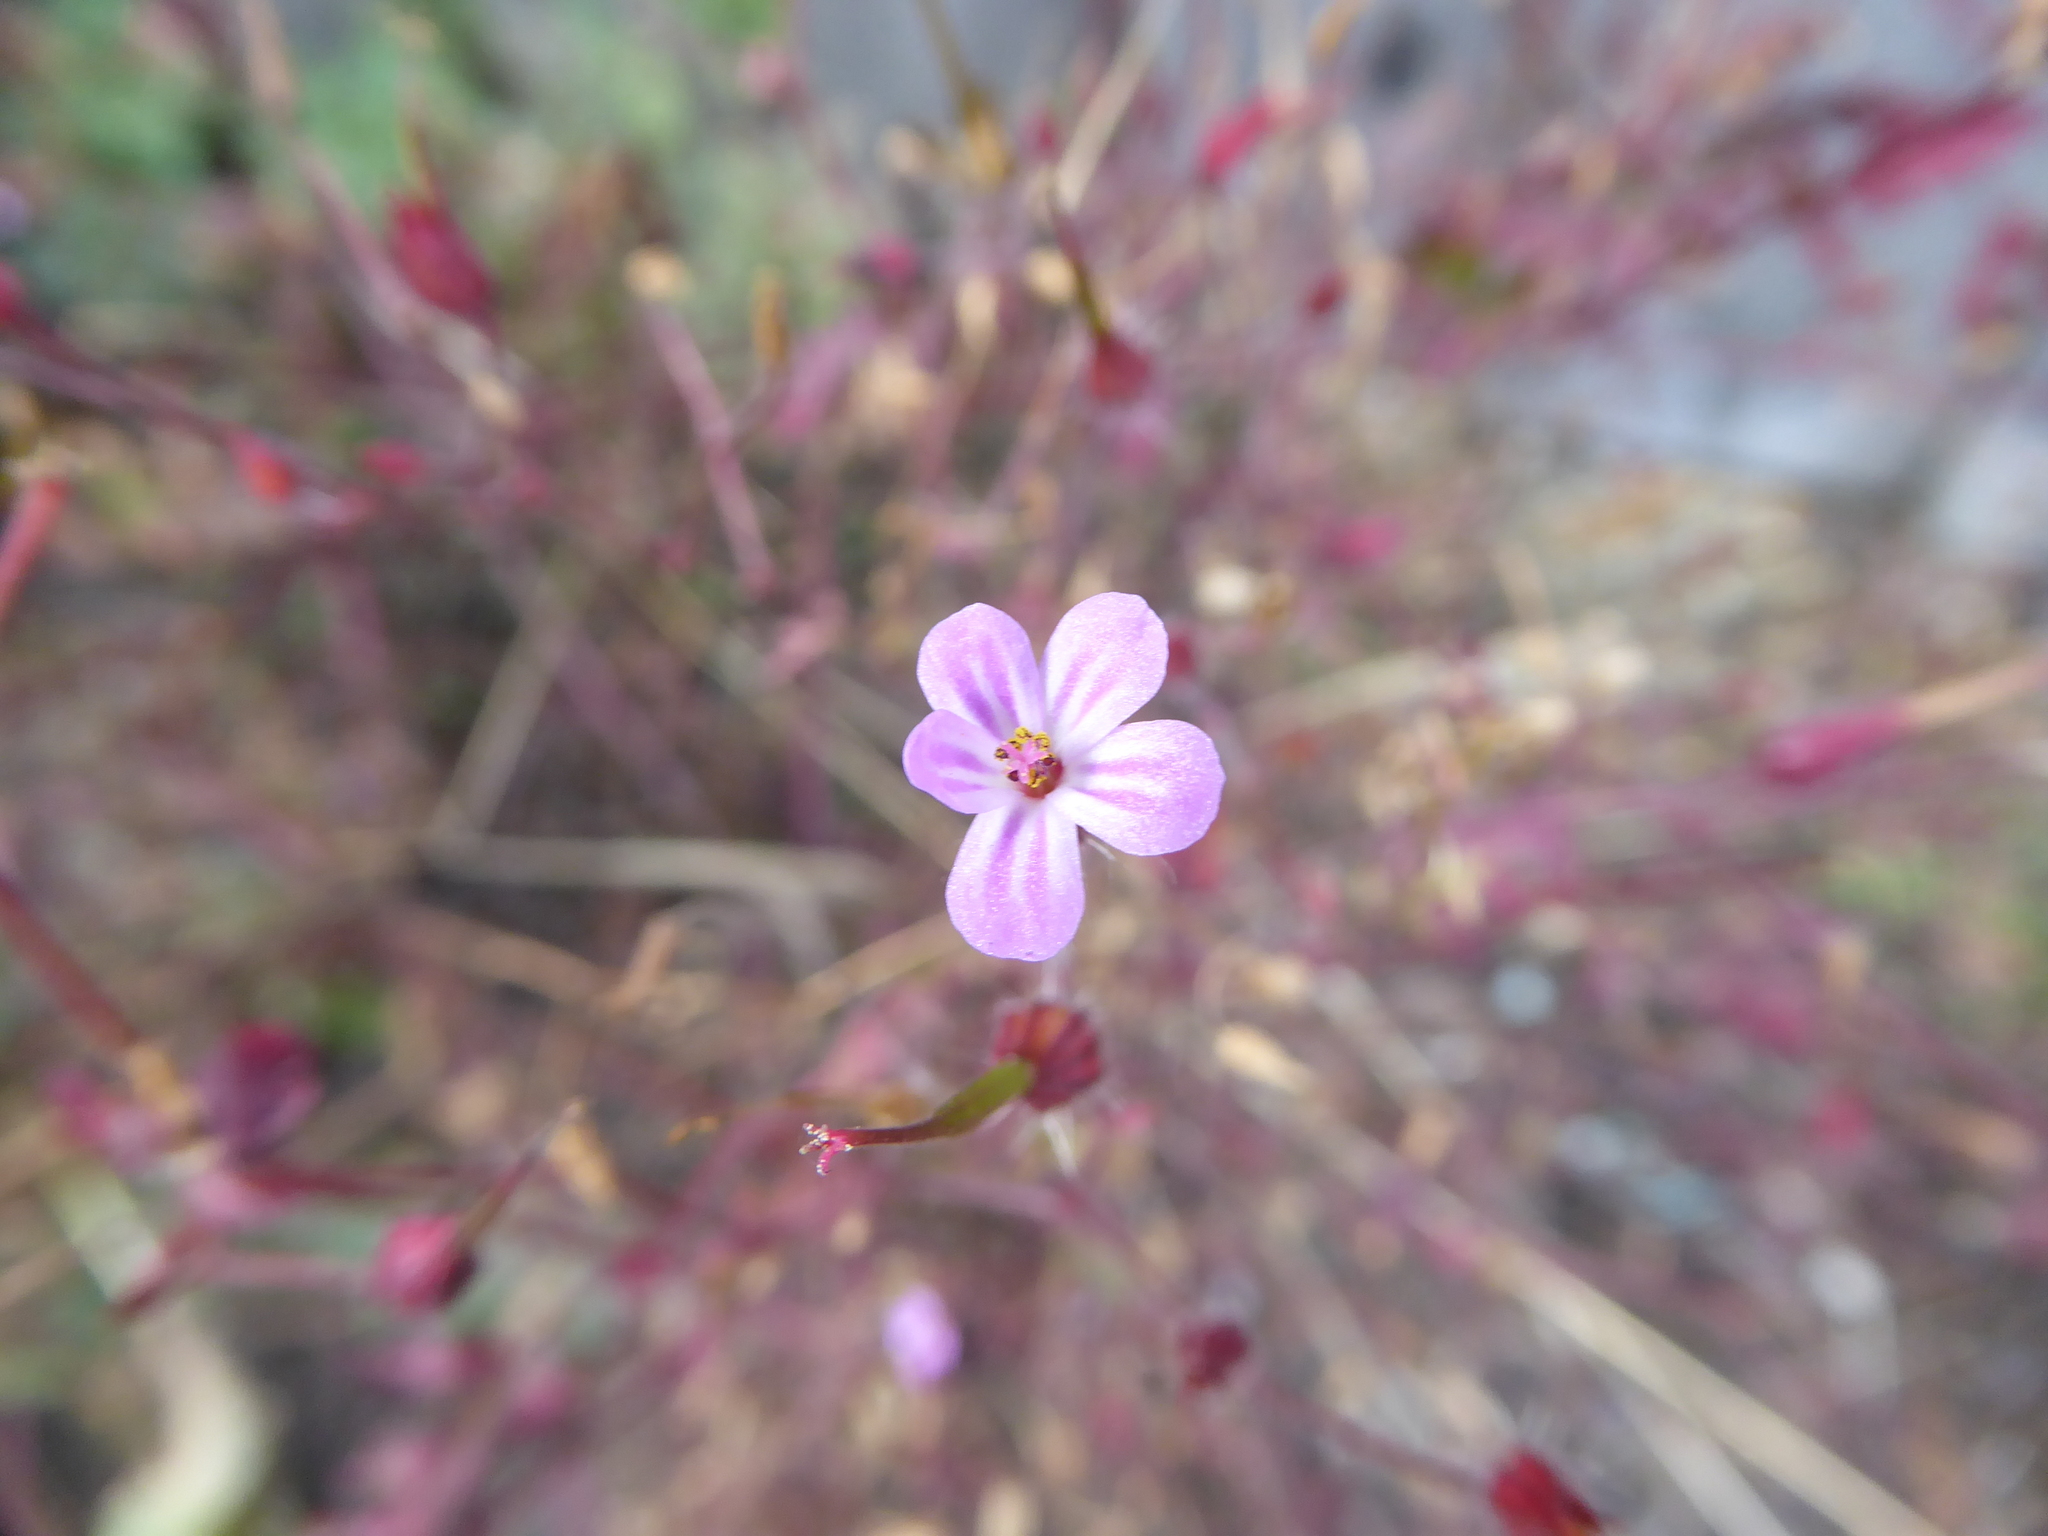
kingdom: Plantae
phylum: Tracheophyta
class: Magnoliopsida
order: Geraniales
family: Geraniaceae
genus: Geranium
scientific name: Geranium robertianum
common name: Herb-robert
